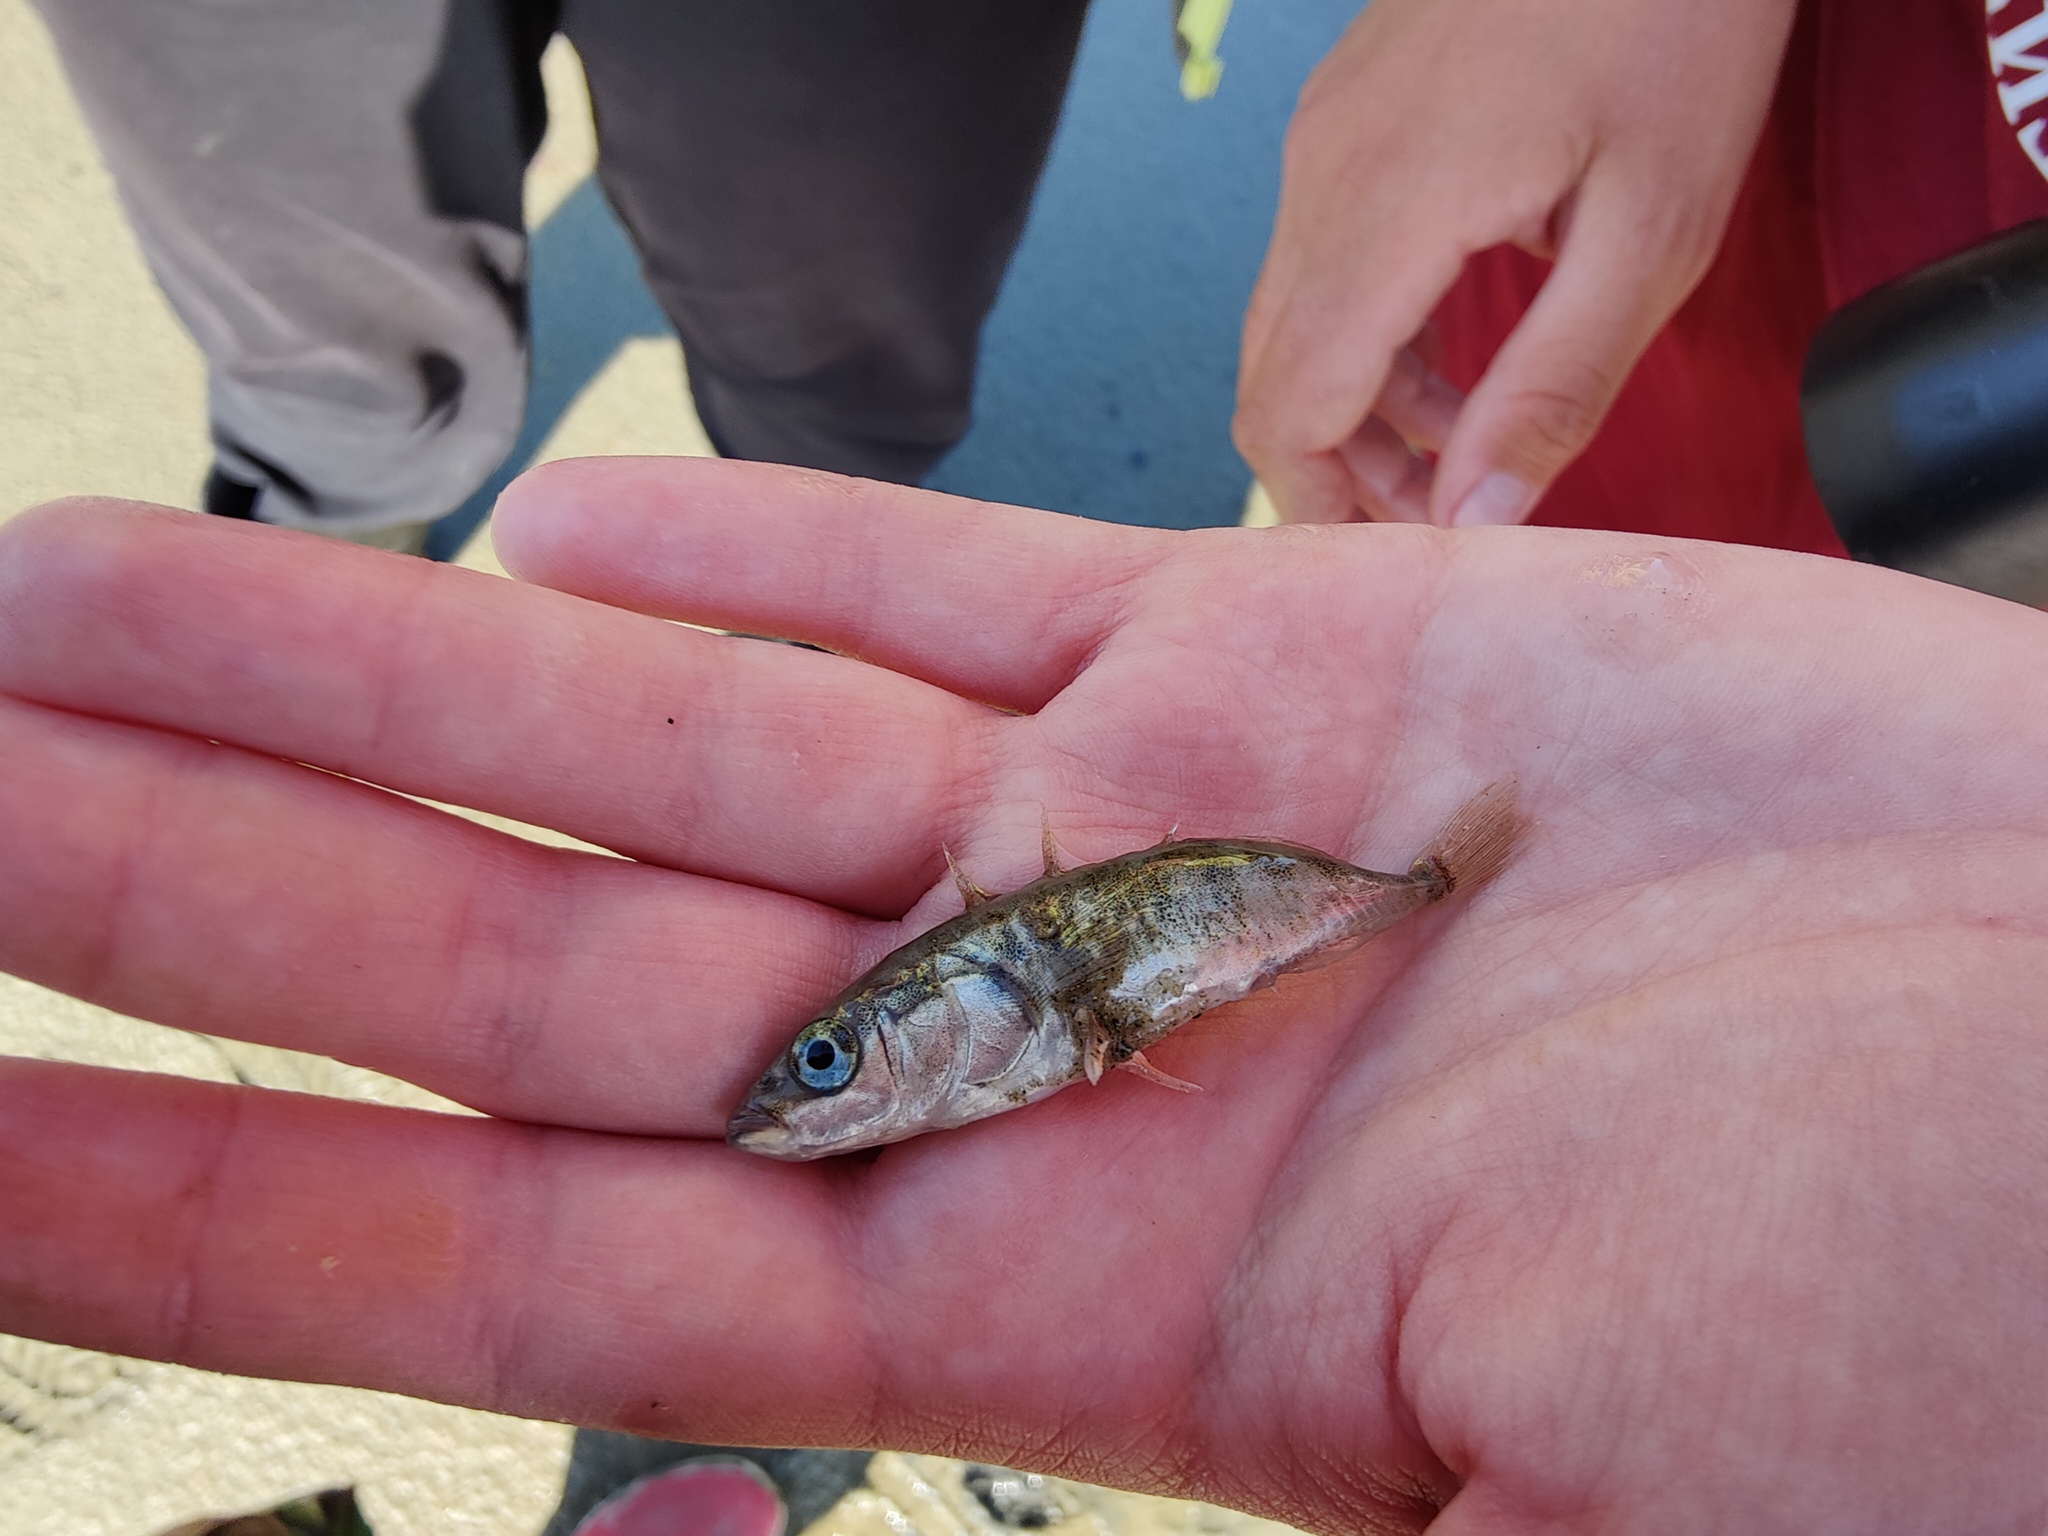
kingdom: Animalia
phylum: Chordata
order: Gasterosteiformes
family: Gasterosteidae
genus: Gasterosteus
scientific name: Gasterosteus aculeatus
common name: Three-spined stickleback
